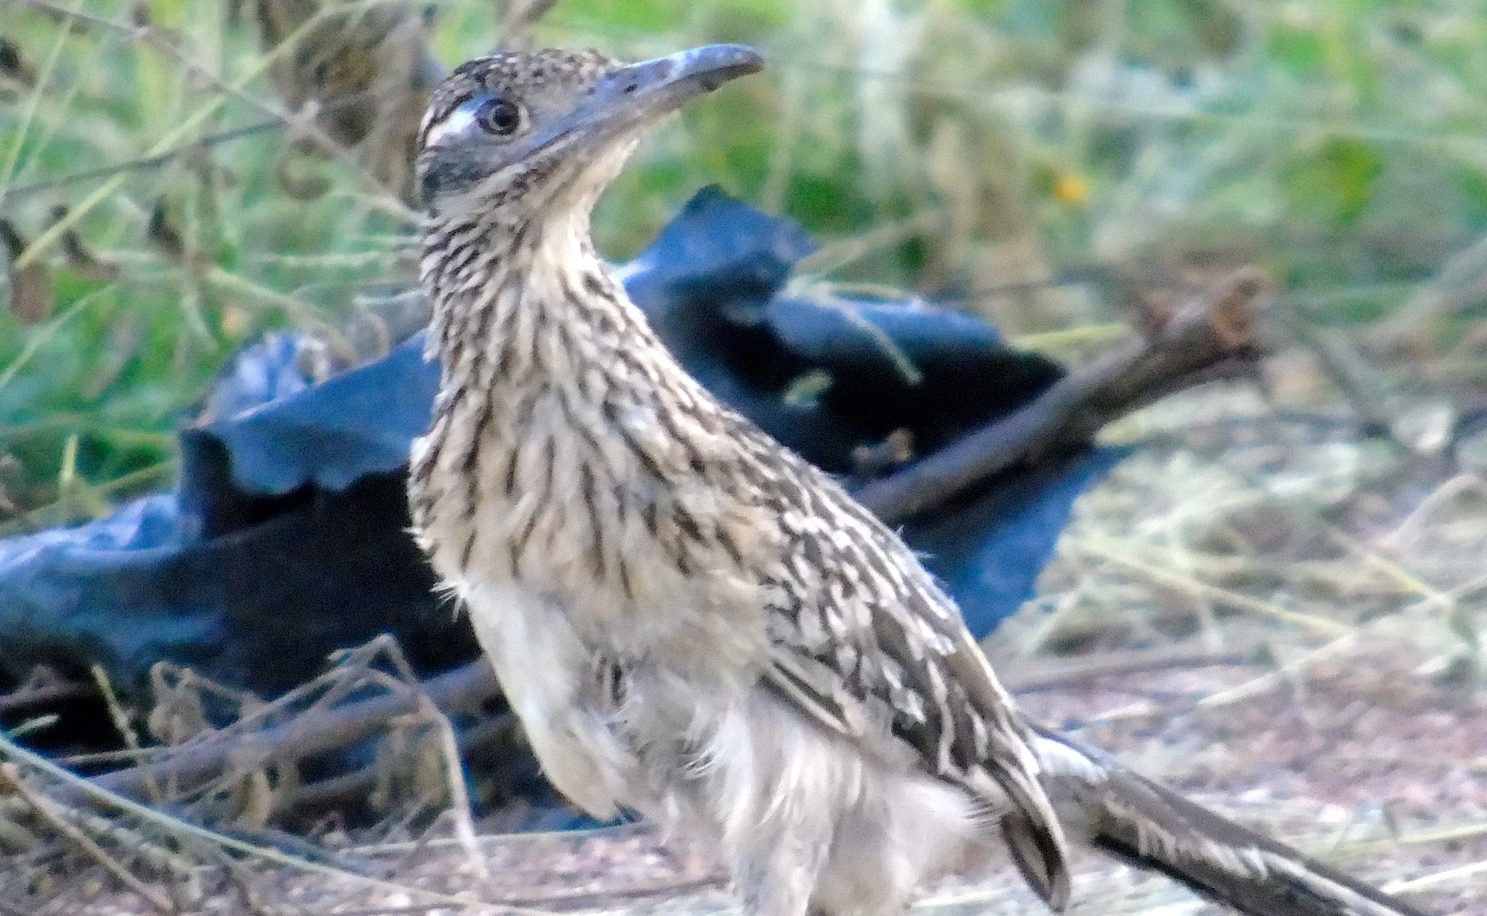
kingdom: Animalia
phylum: Chordata
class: Aves
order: Cuculiformes
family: Cuculidae
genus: Geococcyx
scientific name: Geococcyx californianus
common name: Greater roadrunner
